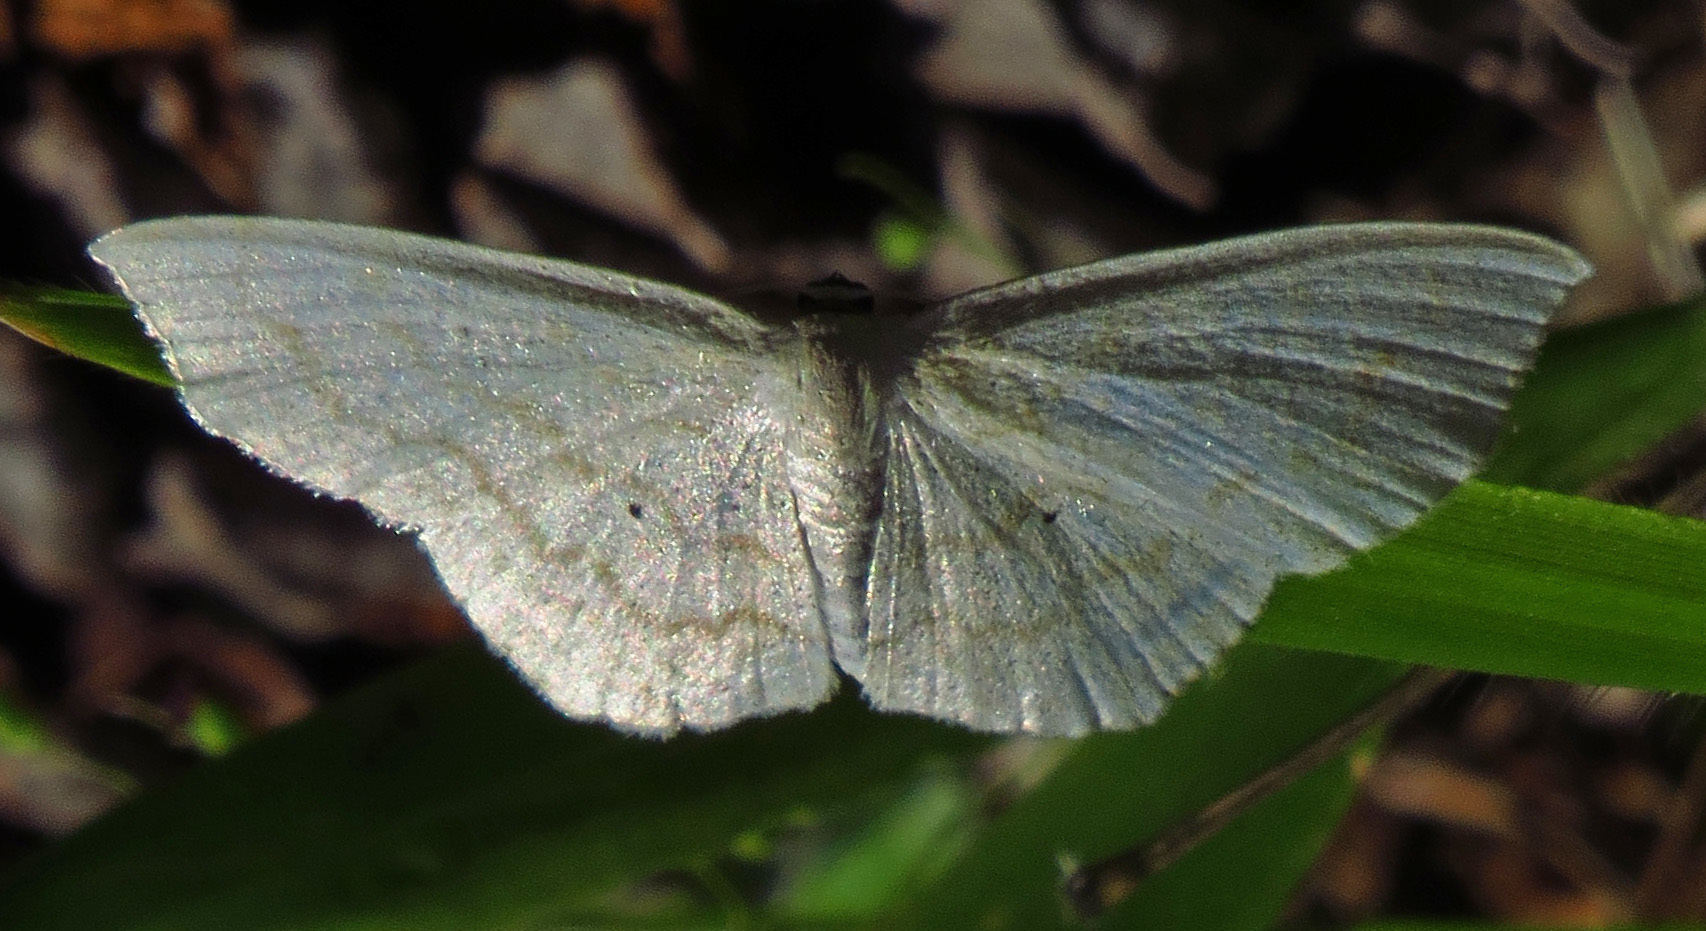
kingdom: Animalia
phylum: Arthropoda
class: Insecta
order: Lepidoptera
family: Geometridae
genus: Scopula
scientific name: Scopula limboundata
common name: Large lace border
